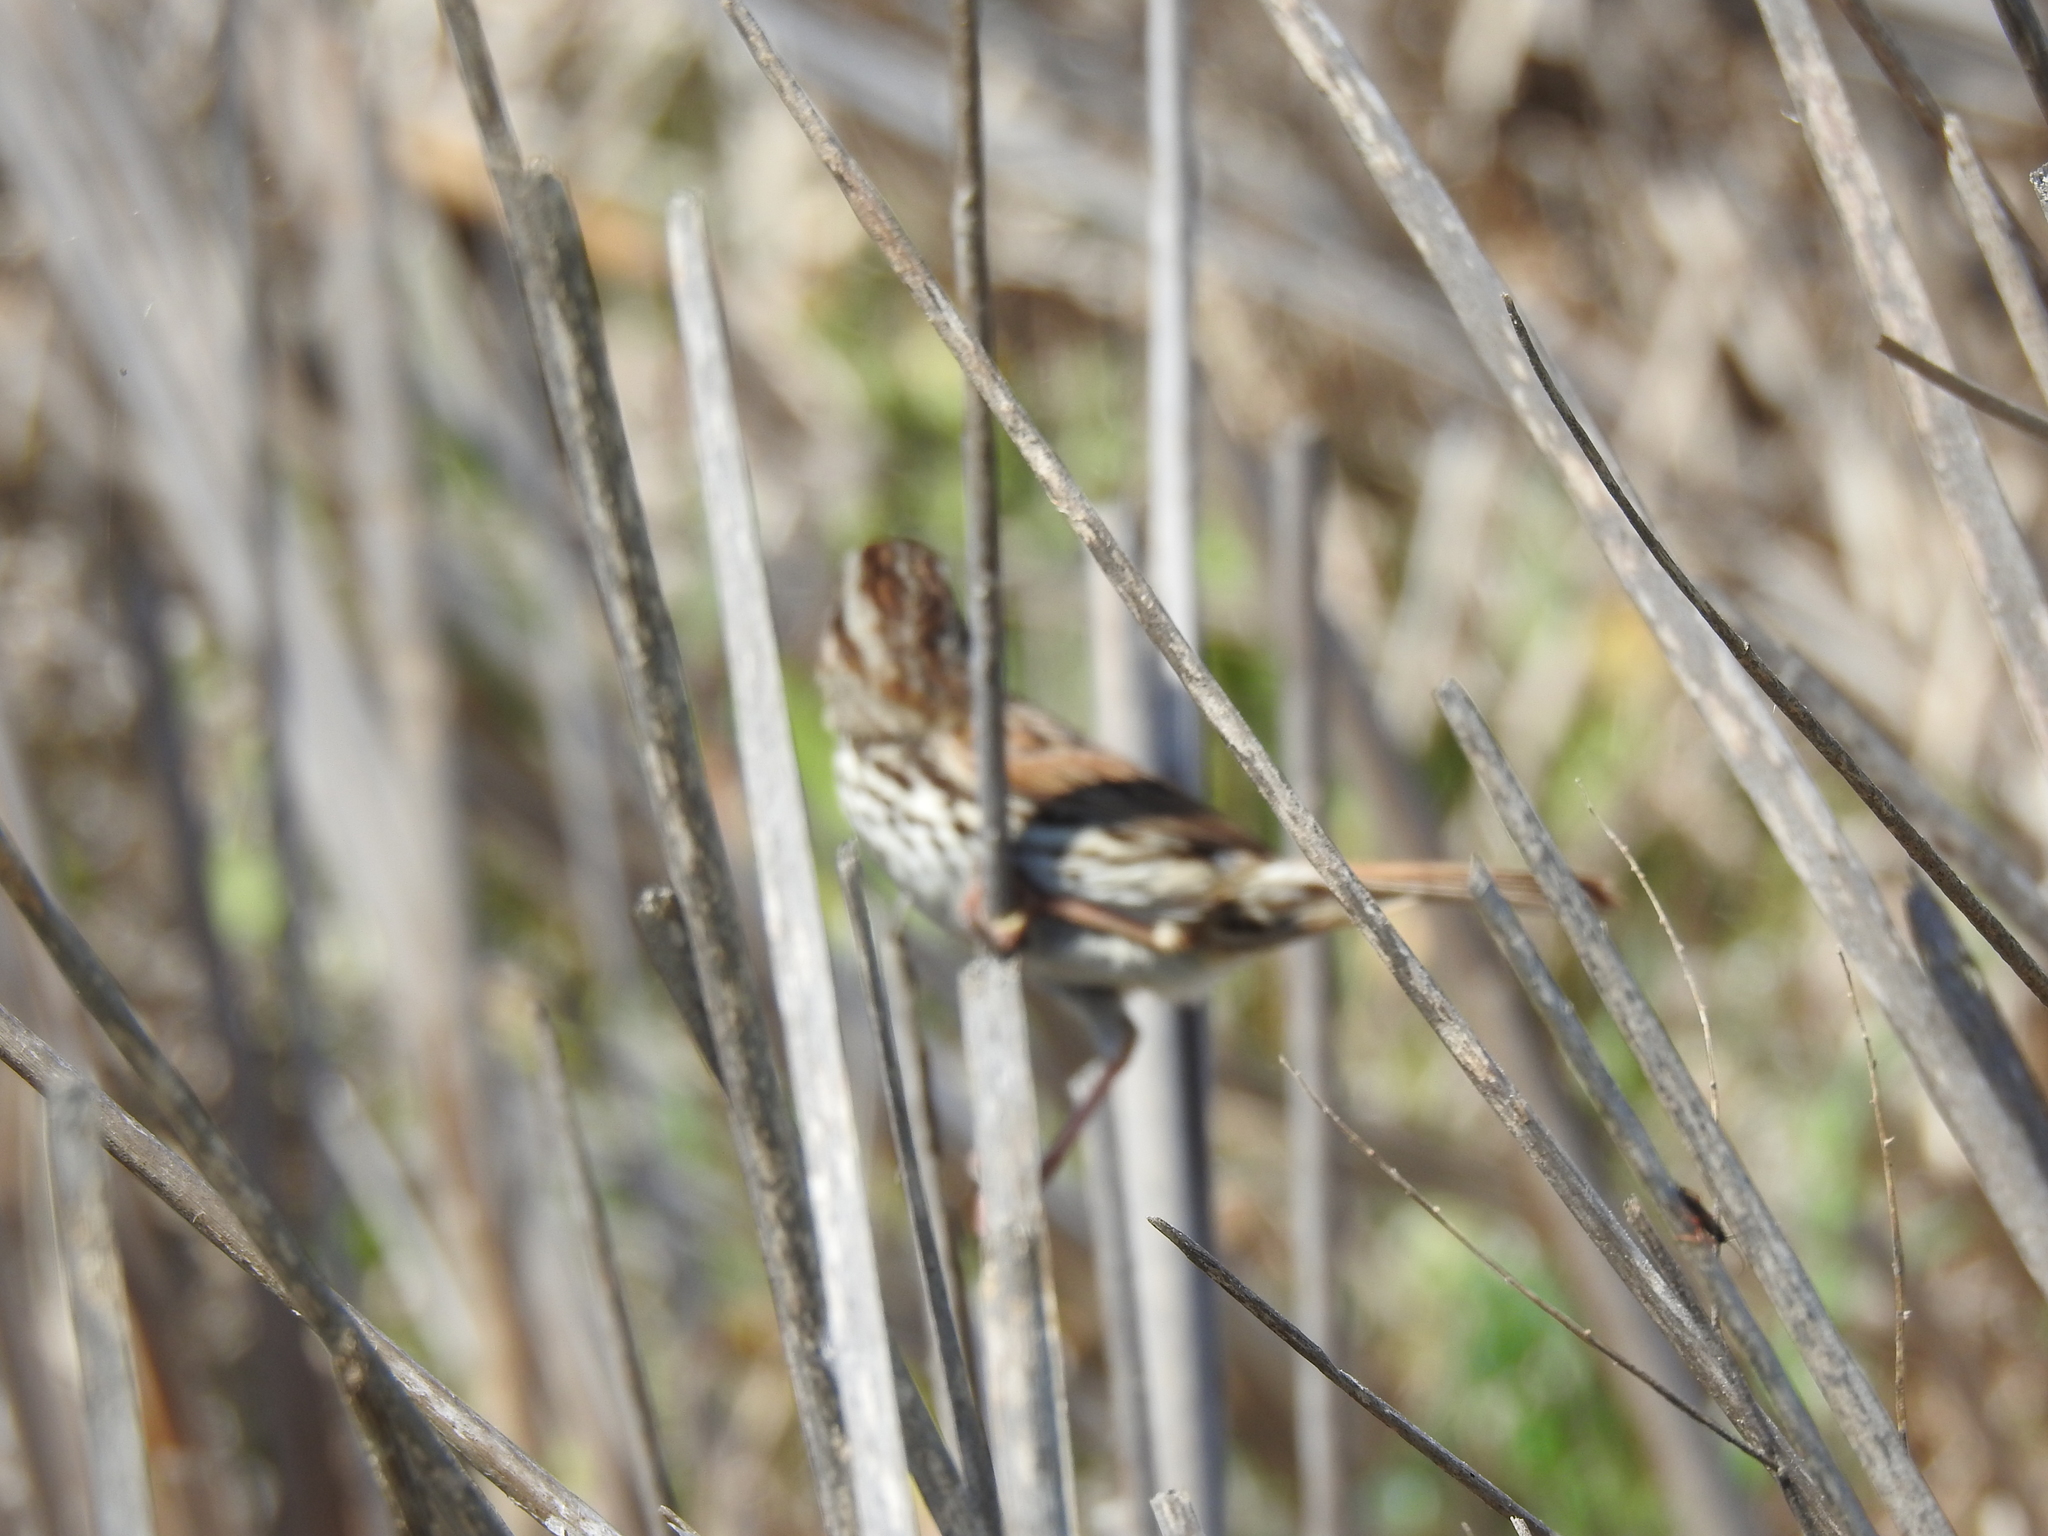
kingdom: Animalia
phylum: Chordata
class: Aves
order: Passeriformes
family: Passerellidae
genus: Melospiza
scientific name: Melospiza melodia
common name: Song sparrow
